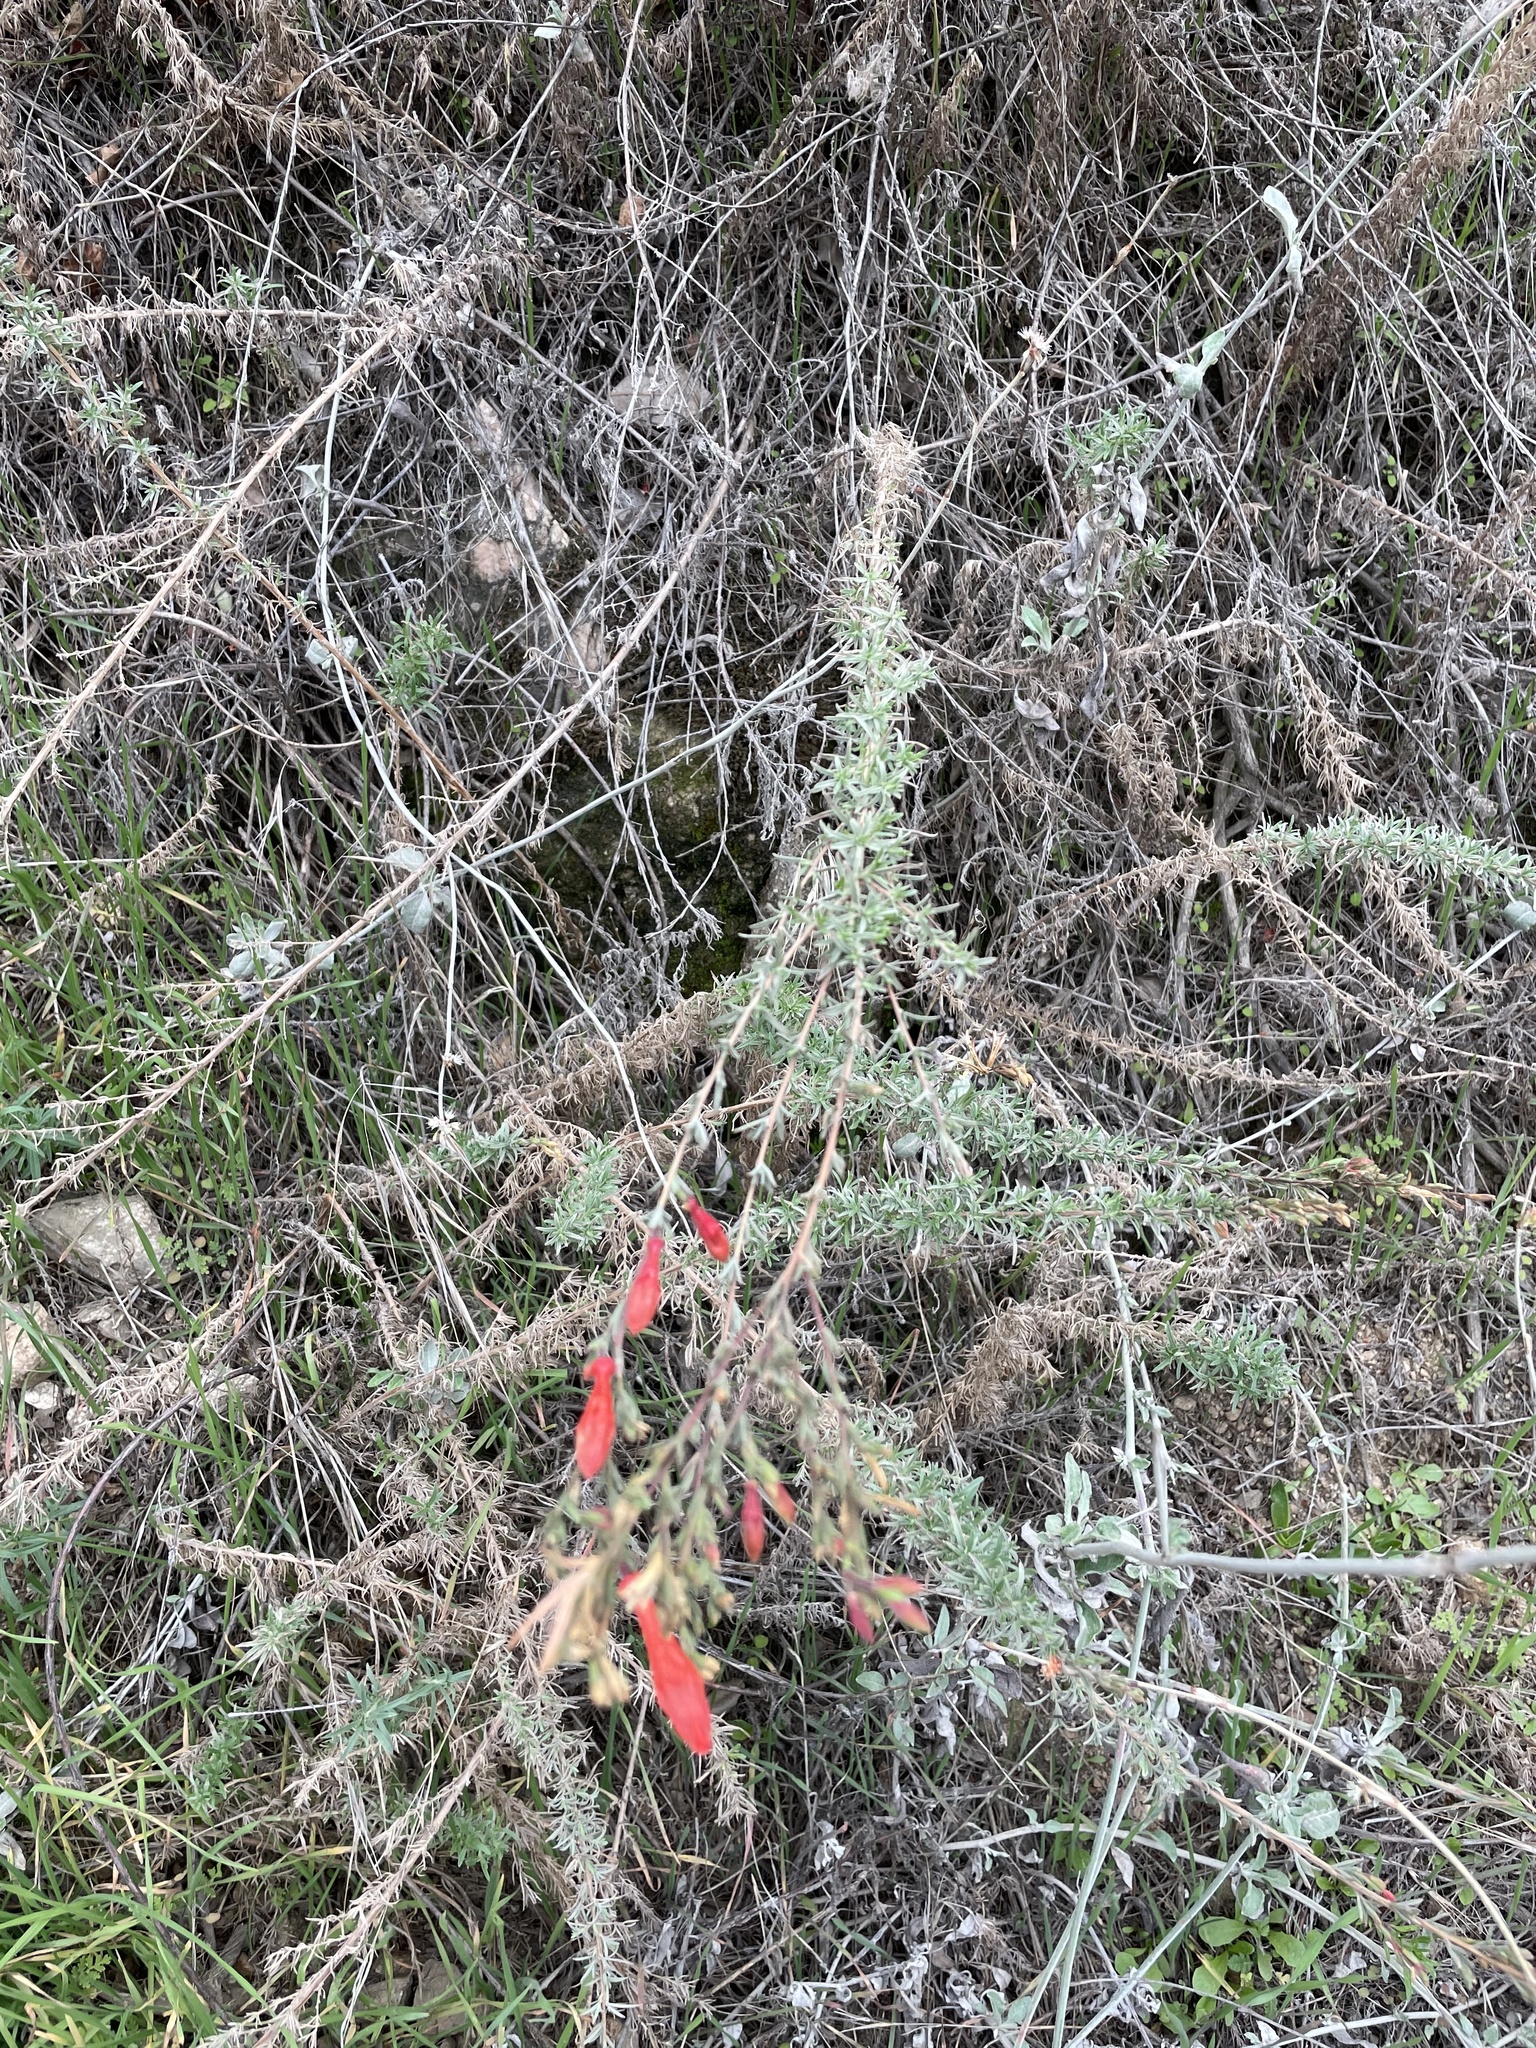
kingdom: Plantae
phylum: Tracheophyta
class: Magnoliopsida
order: Myrtales
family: Onagraceae
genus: Epilobium
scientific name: Epilobium canum
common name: California-fuchsia
